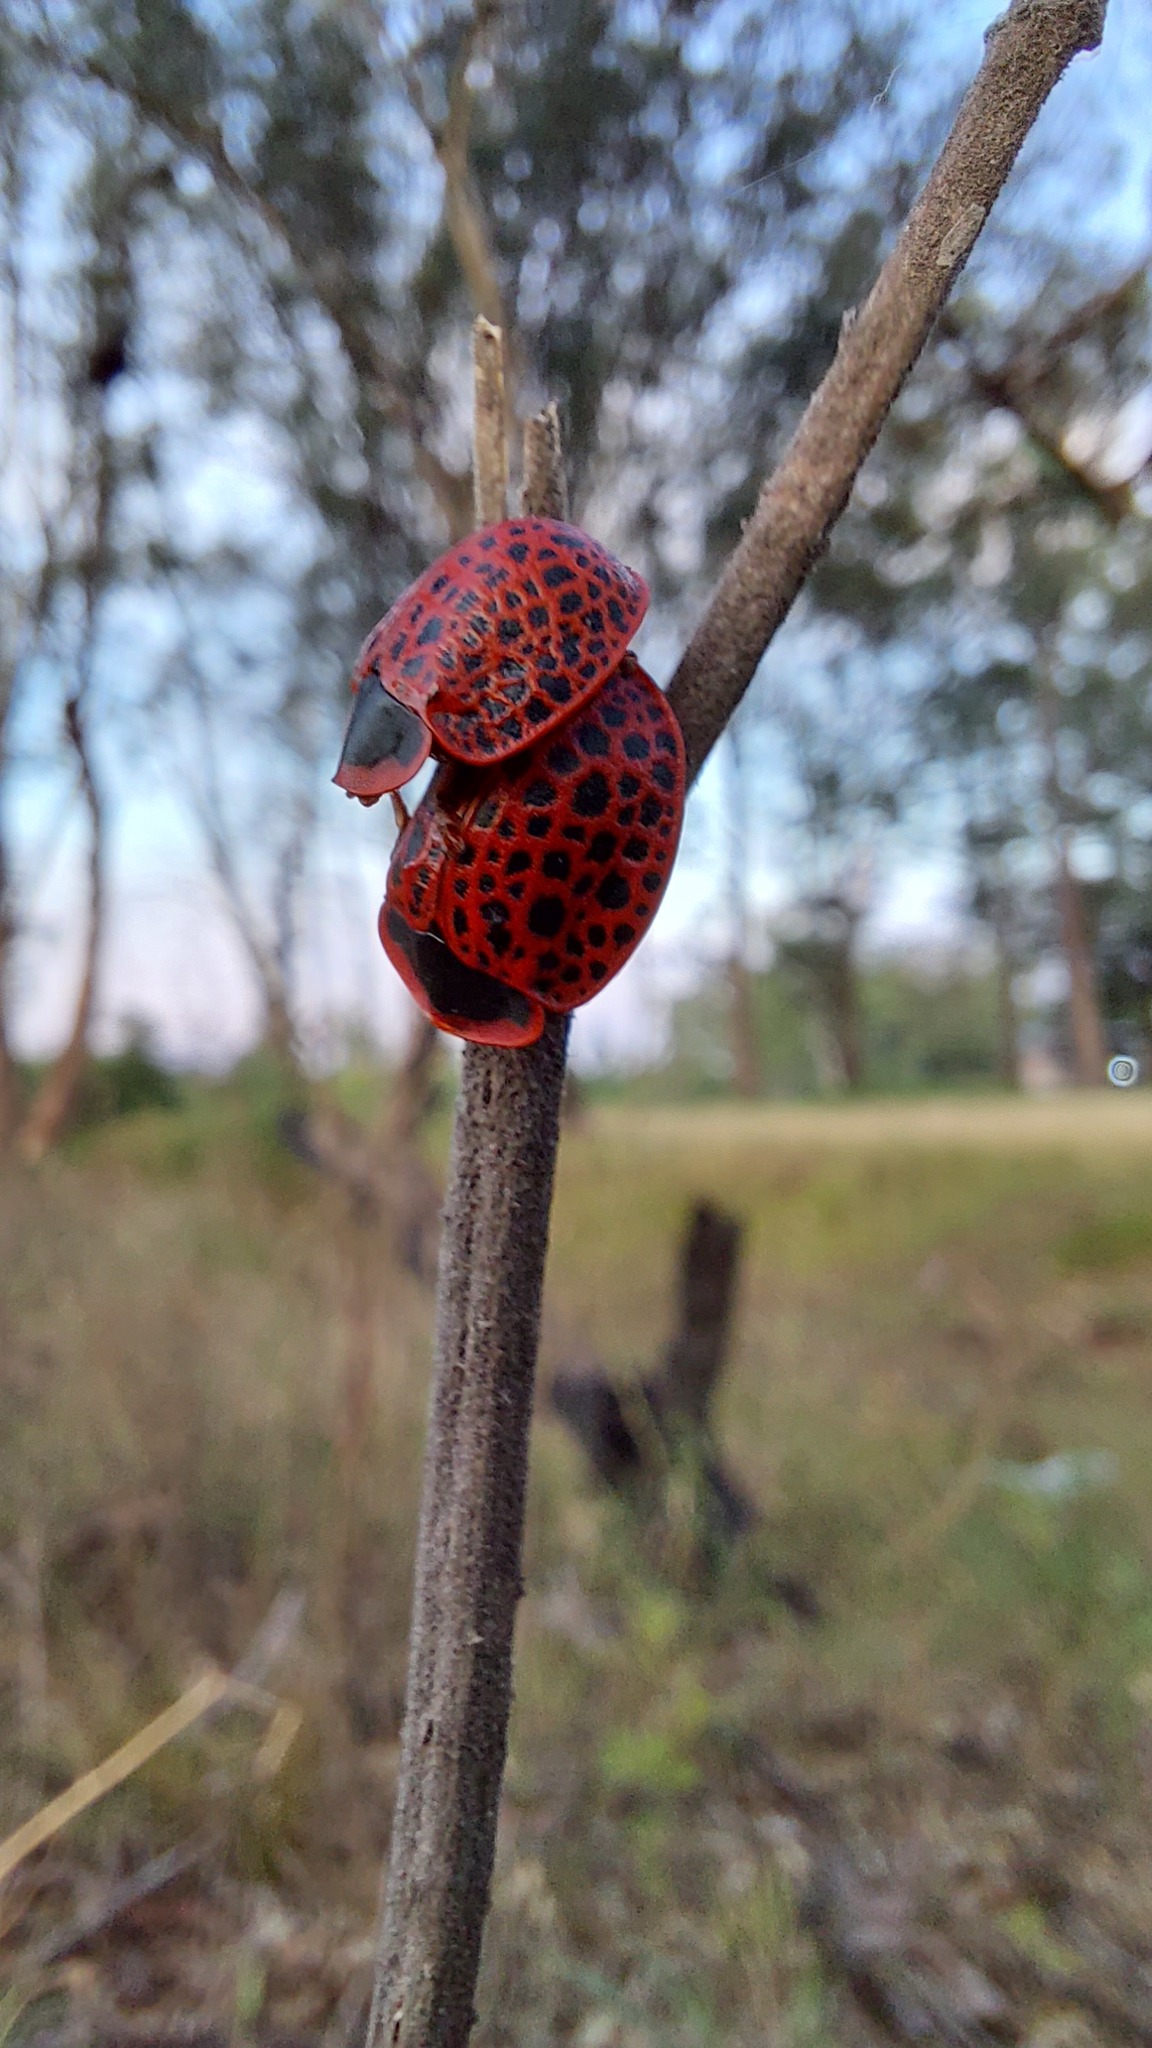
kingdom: Animalia
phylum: Arthropoda
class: Insecta
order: Coleoptera
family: Chrysomelidae
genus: Botanochara
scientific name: Botanochara macularia
